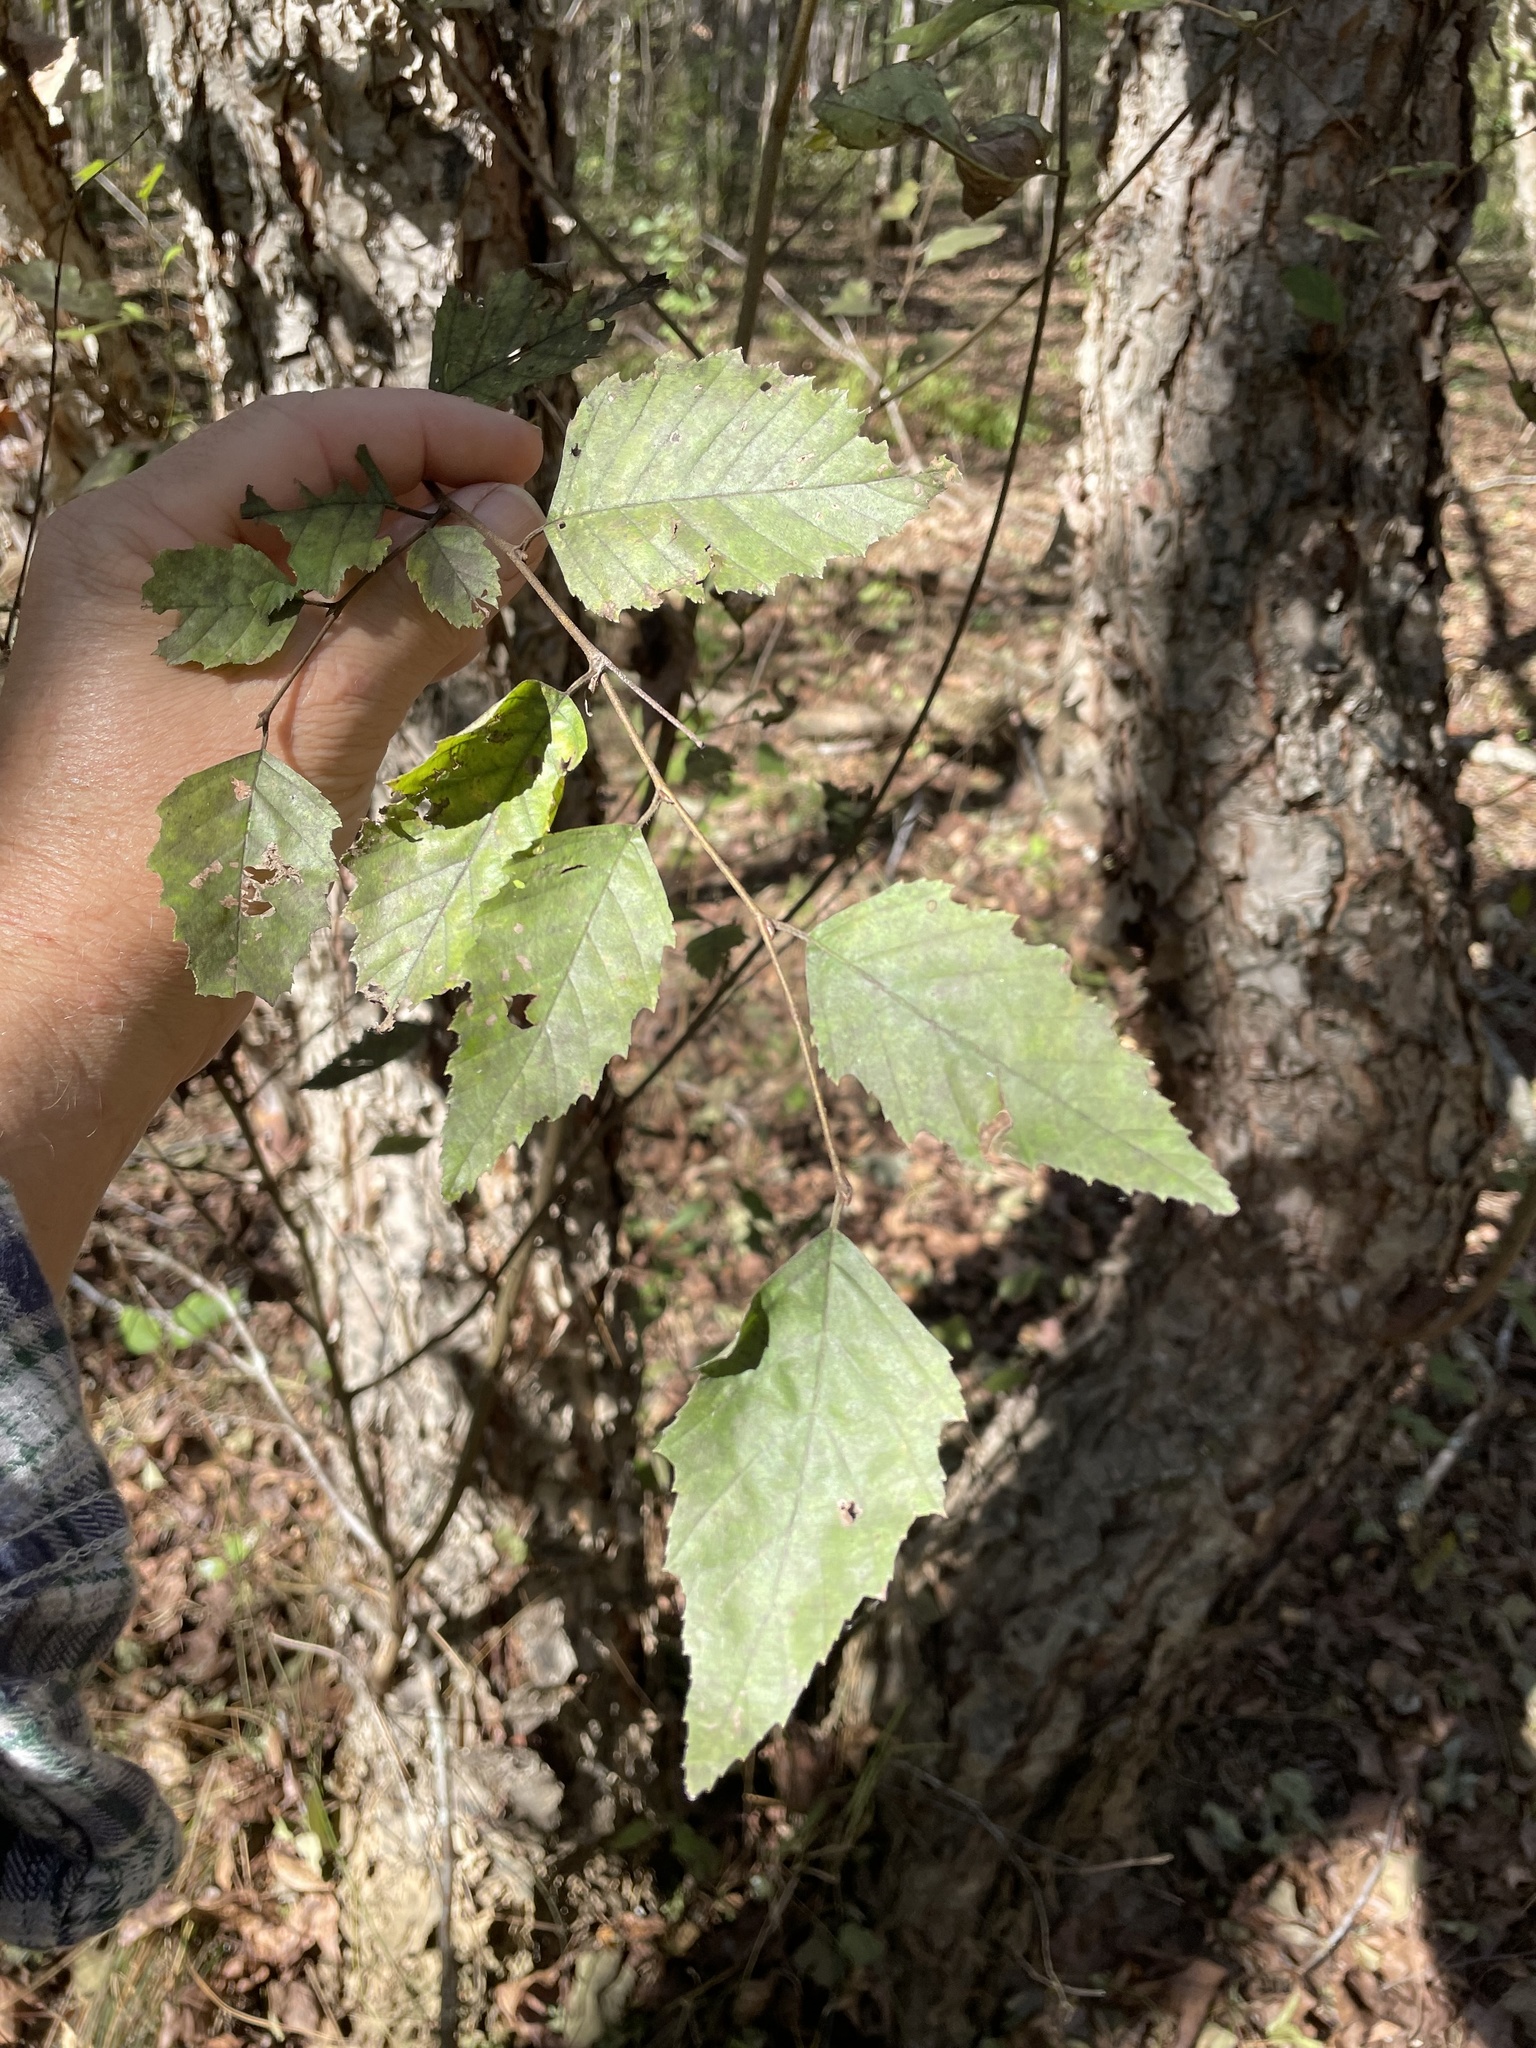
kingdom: Plantae
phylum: Tracheophyta
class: Magnoliopsida
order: Fagales
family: Betulaceae
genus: Betula
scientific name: Betula nigra
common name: Black birch
